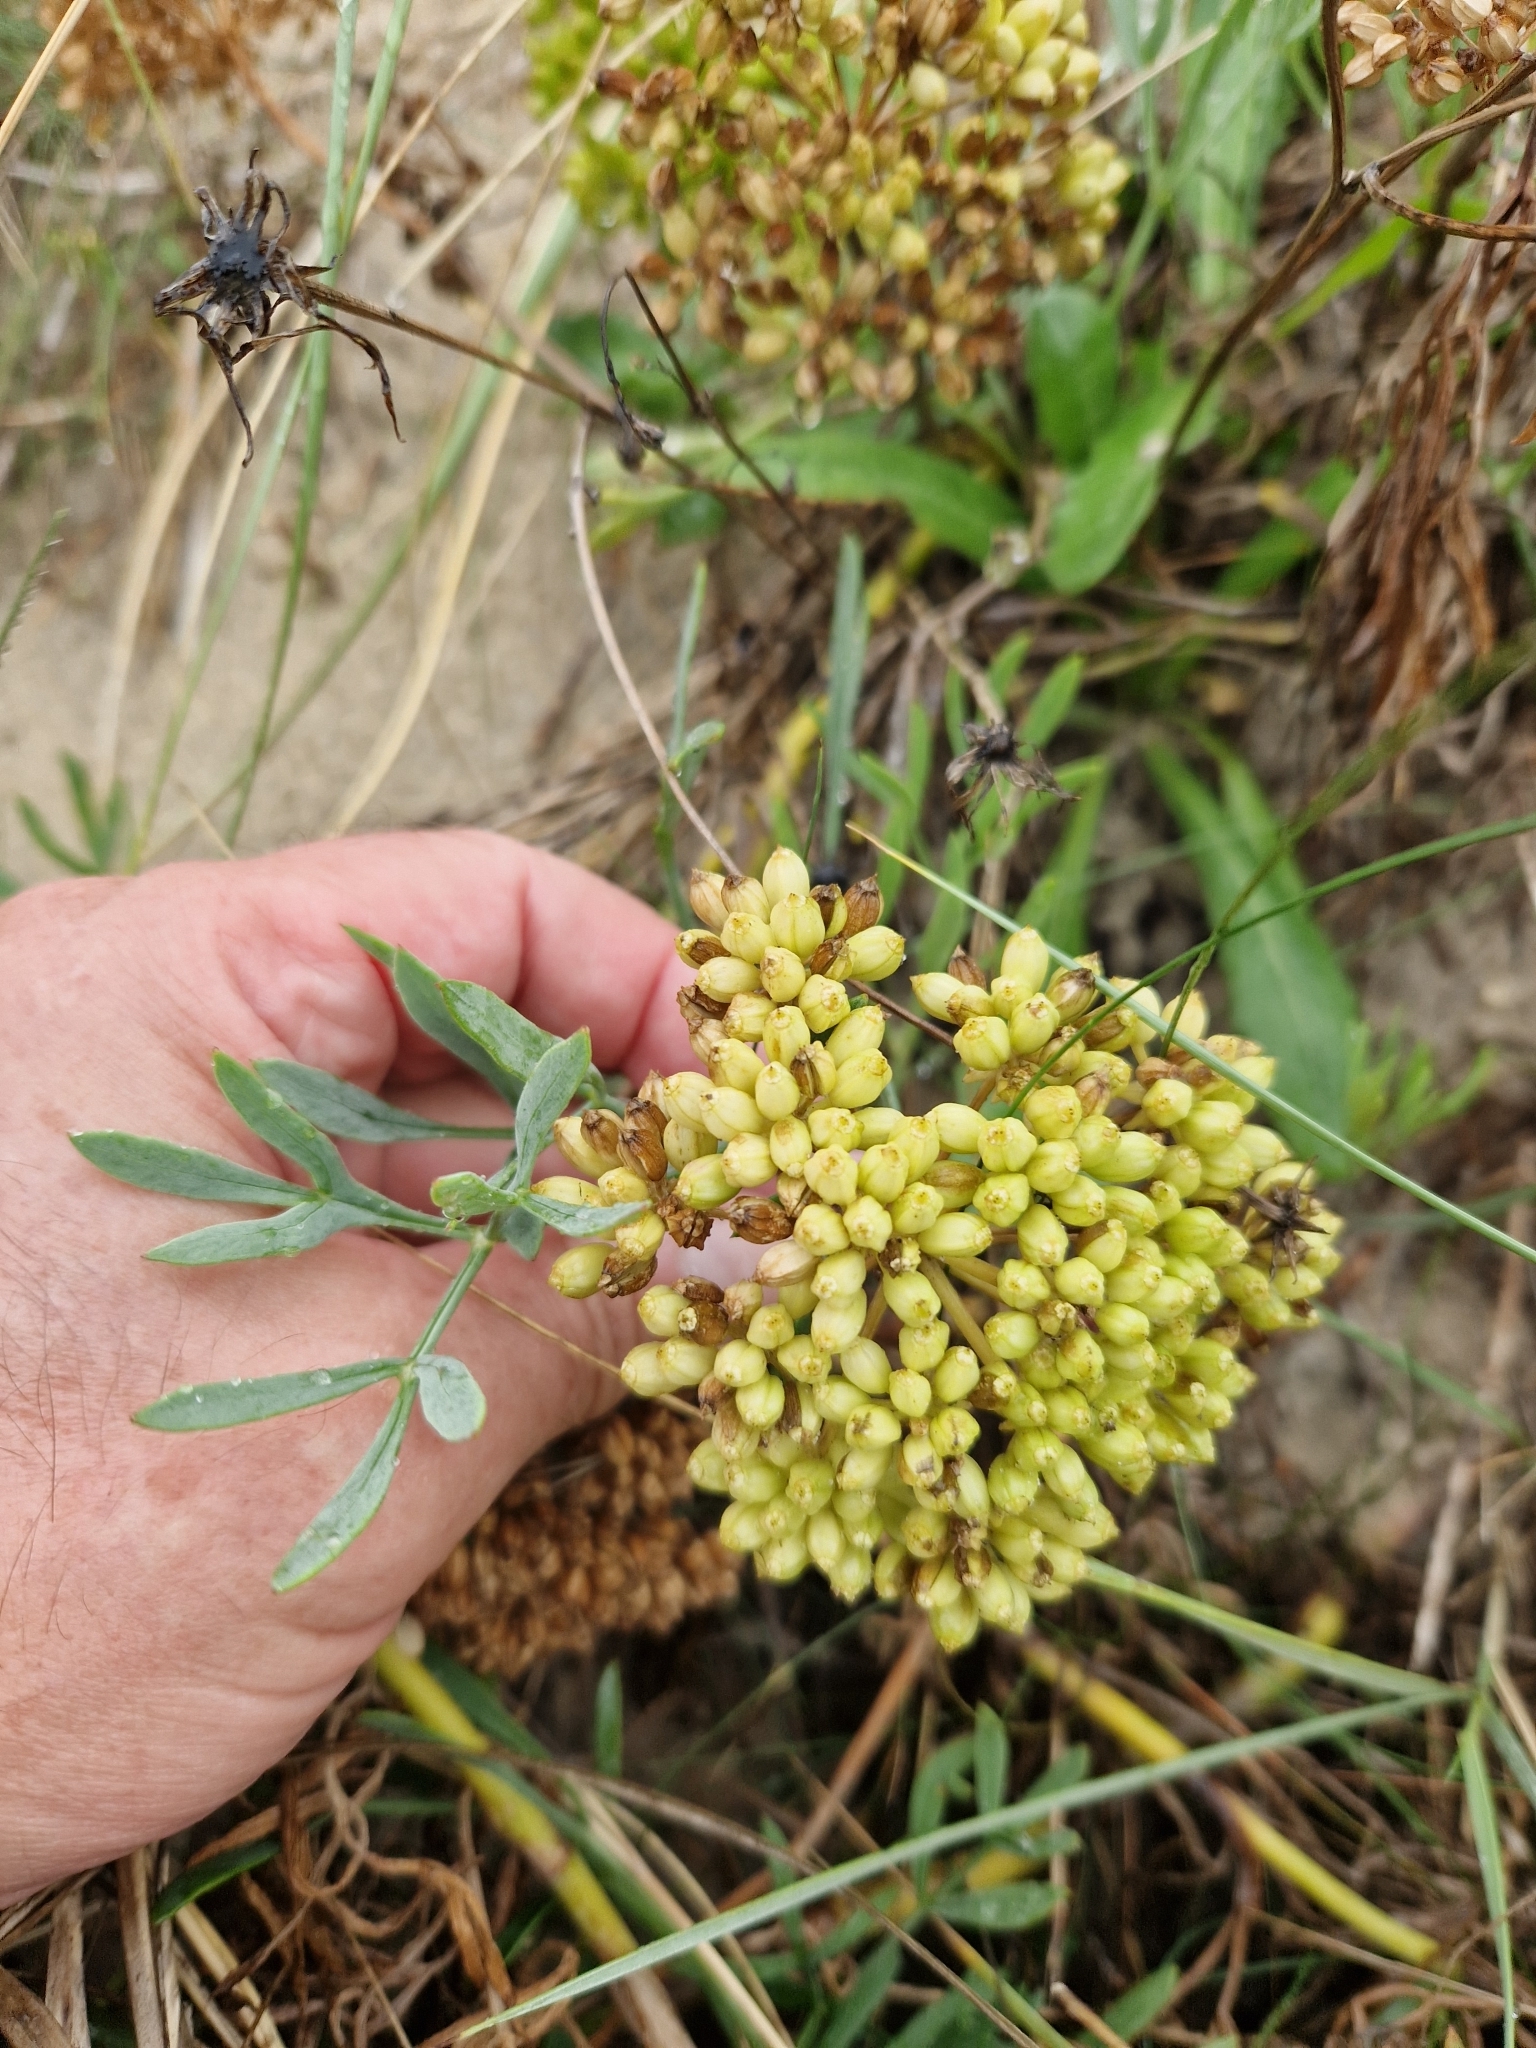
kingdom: Plantae
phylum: Tracheophyta
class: Magnoliopsida
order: Apiales
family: Apiaceae
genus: Crithmum
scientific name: Crithmum maritimum
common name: Rock samphire
